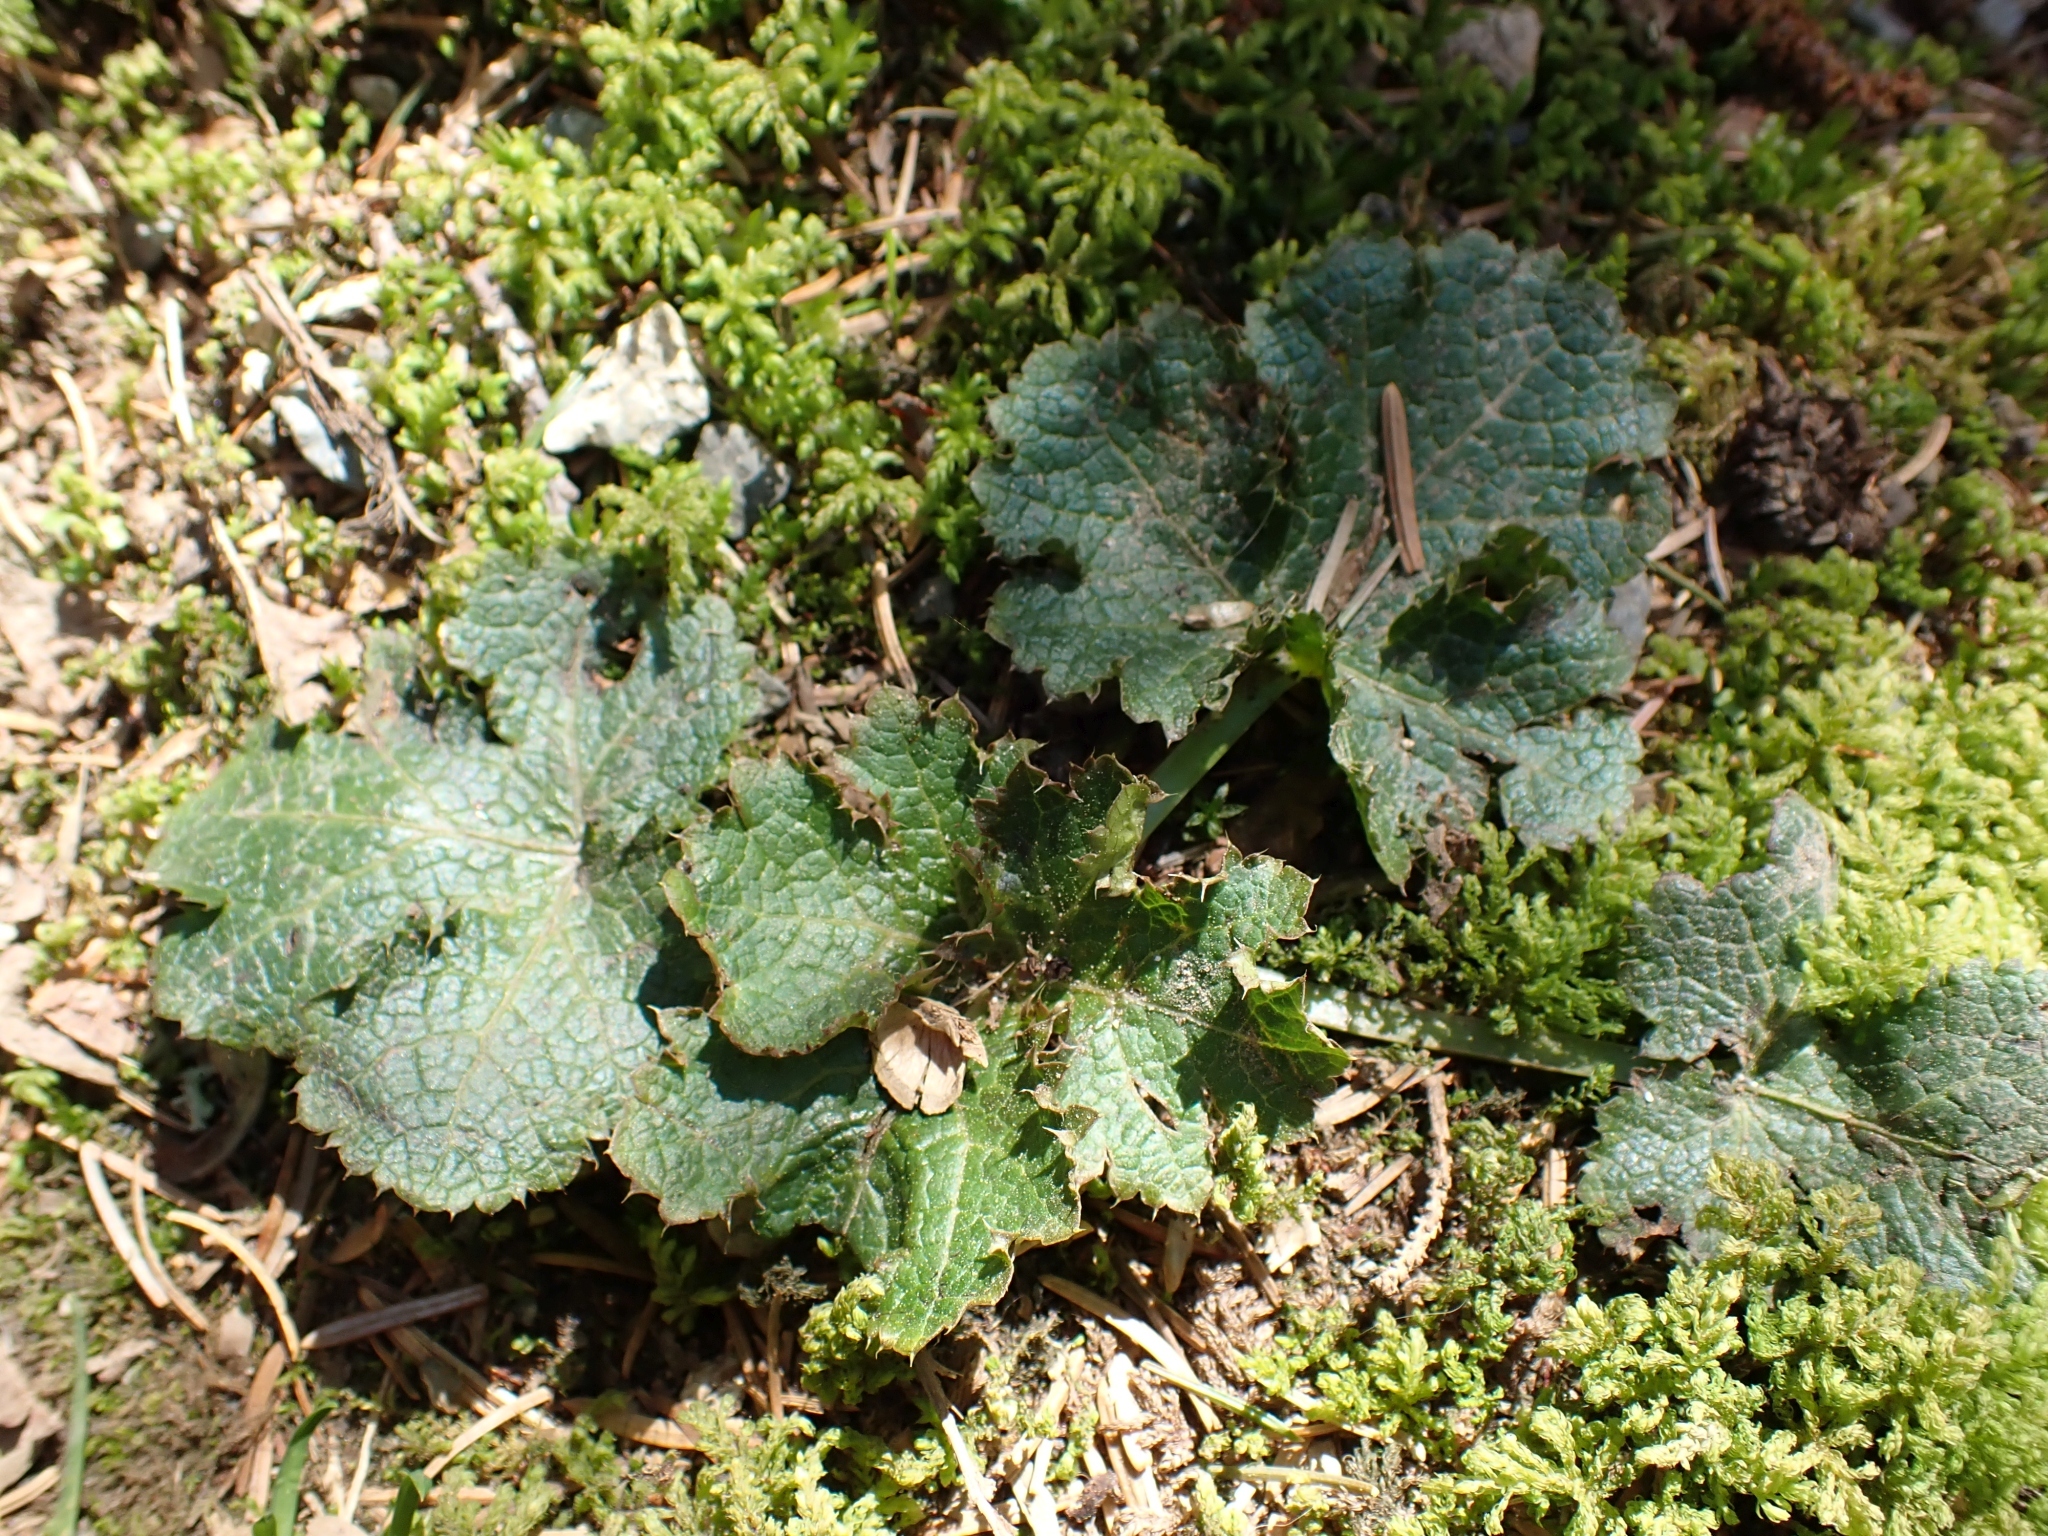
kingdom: Plantae
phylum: Tracheophyta
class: Magnoliopsida
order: Apiales
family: Apiaceae
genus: Sanicula
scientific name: Sanicula crassicaulis
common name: Western snakeroot
